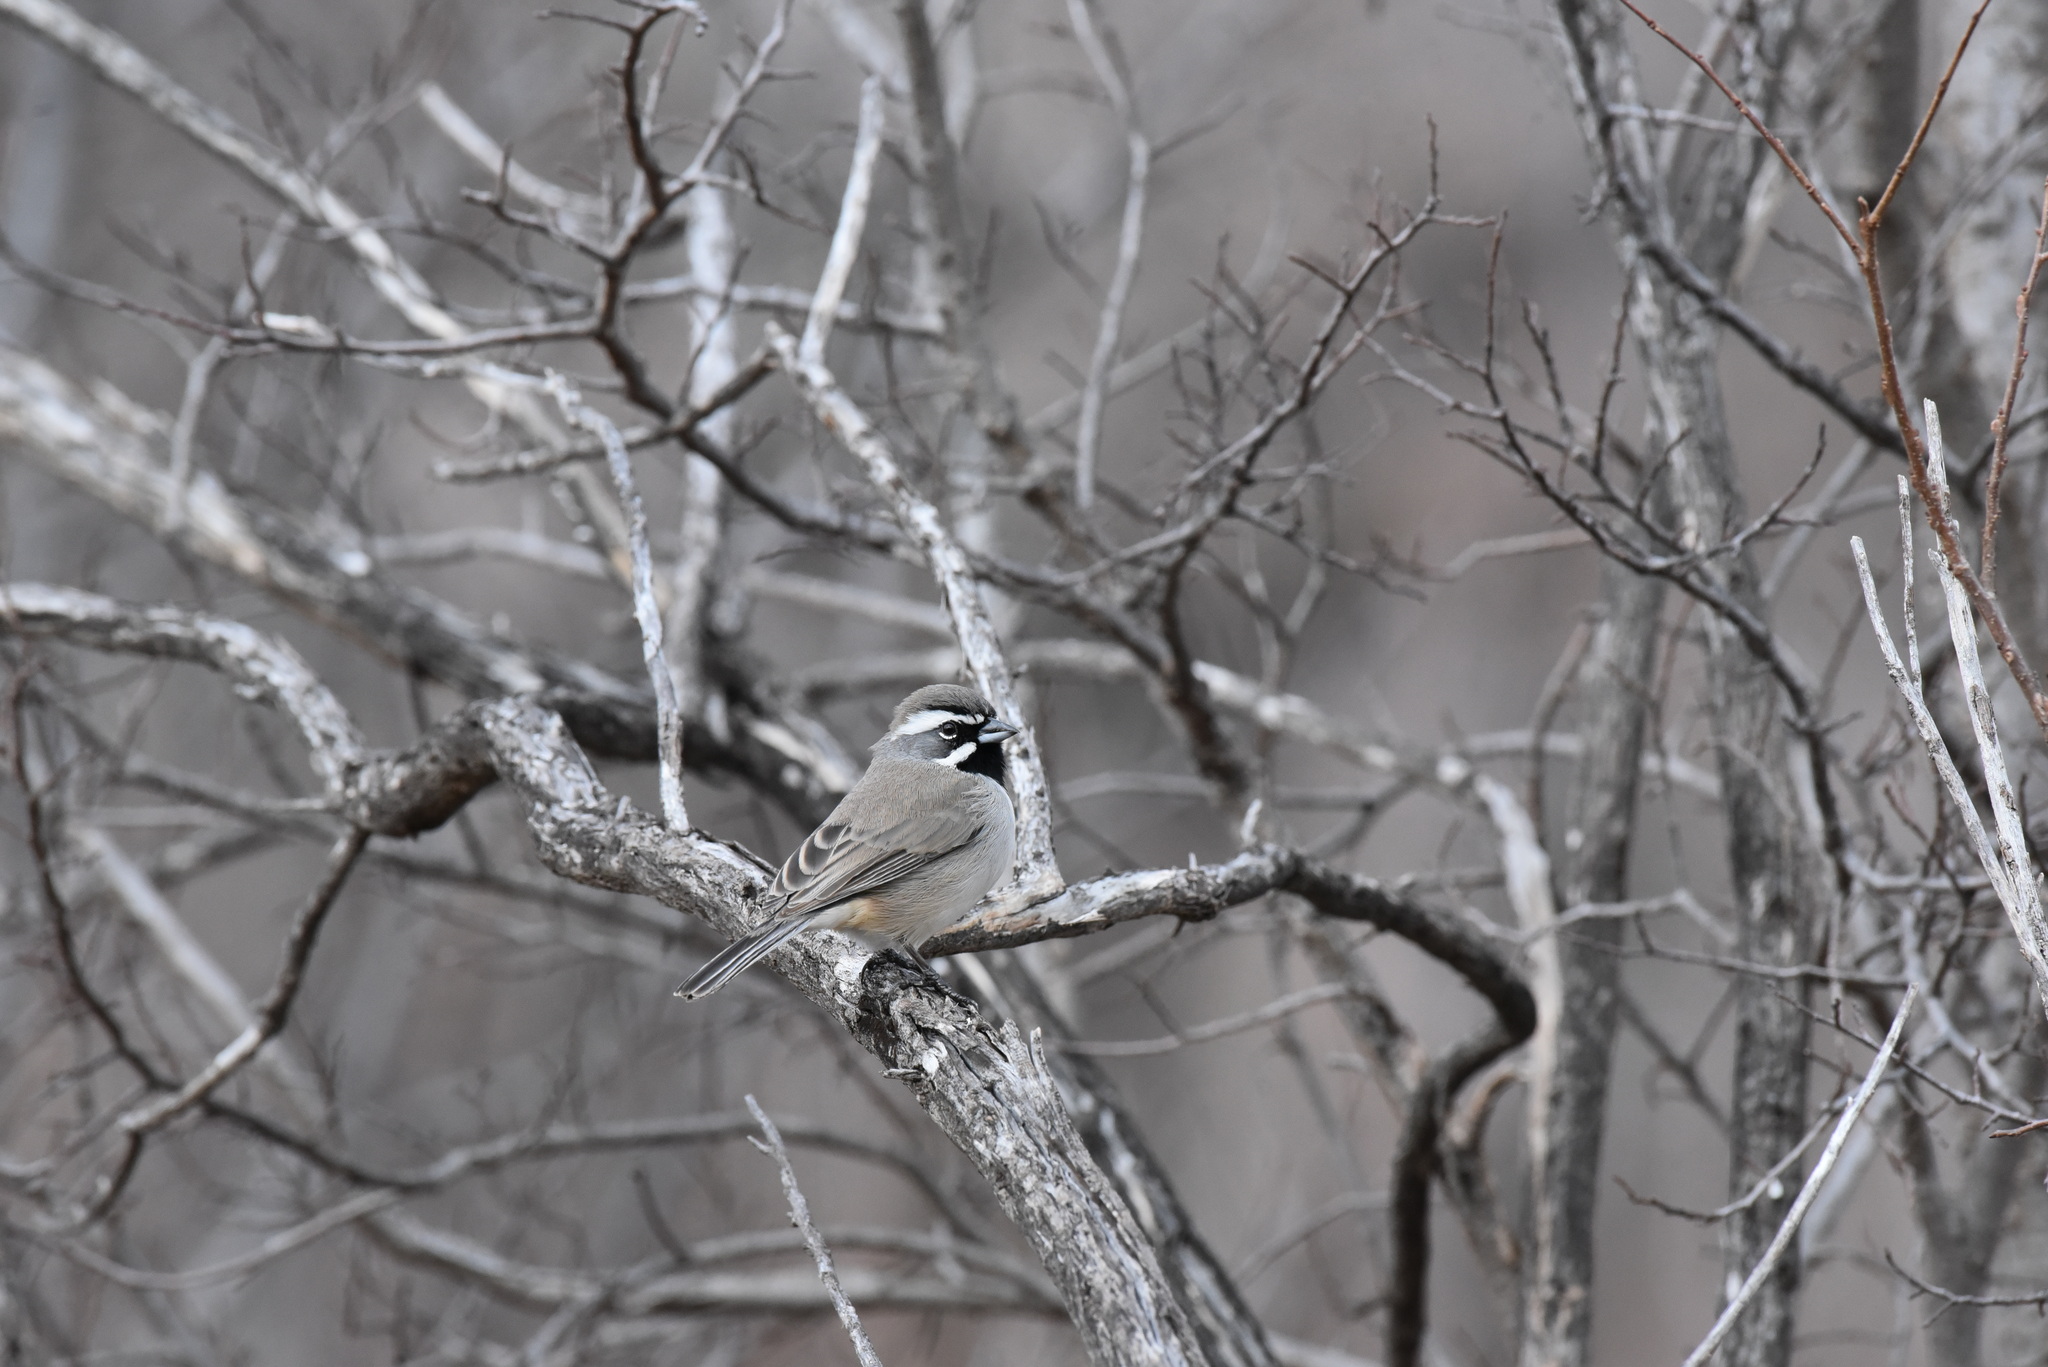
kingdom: Animalia
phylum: Chordata
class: Aves
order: Passeriformes
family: Passerellidae
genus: Amphispiza
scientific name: Amphispiza bilineata
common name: Black-throated sparrow
